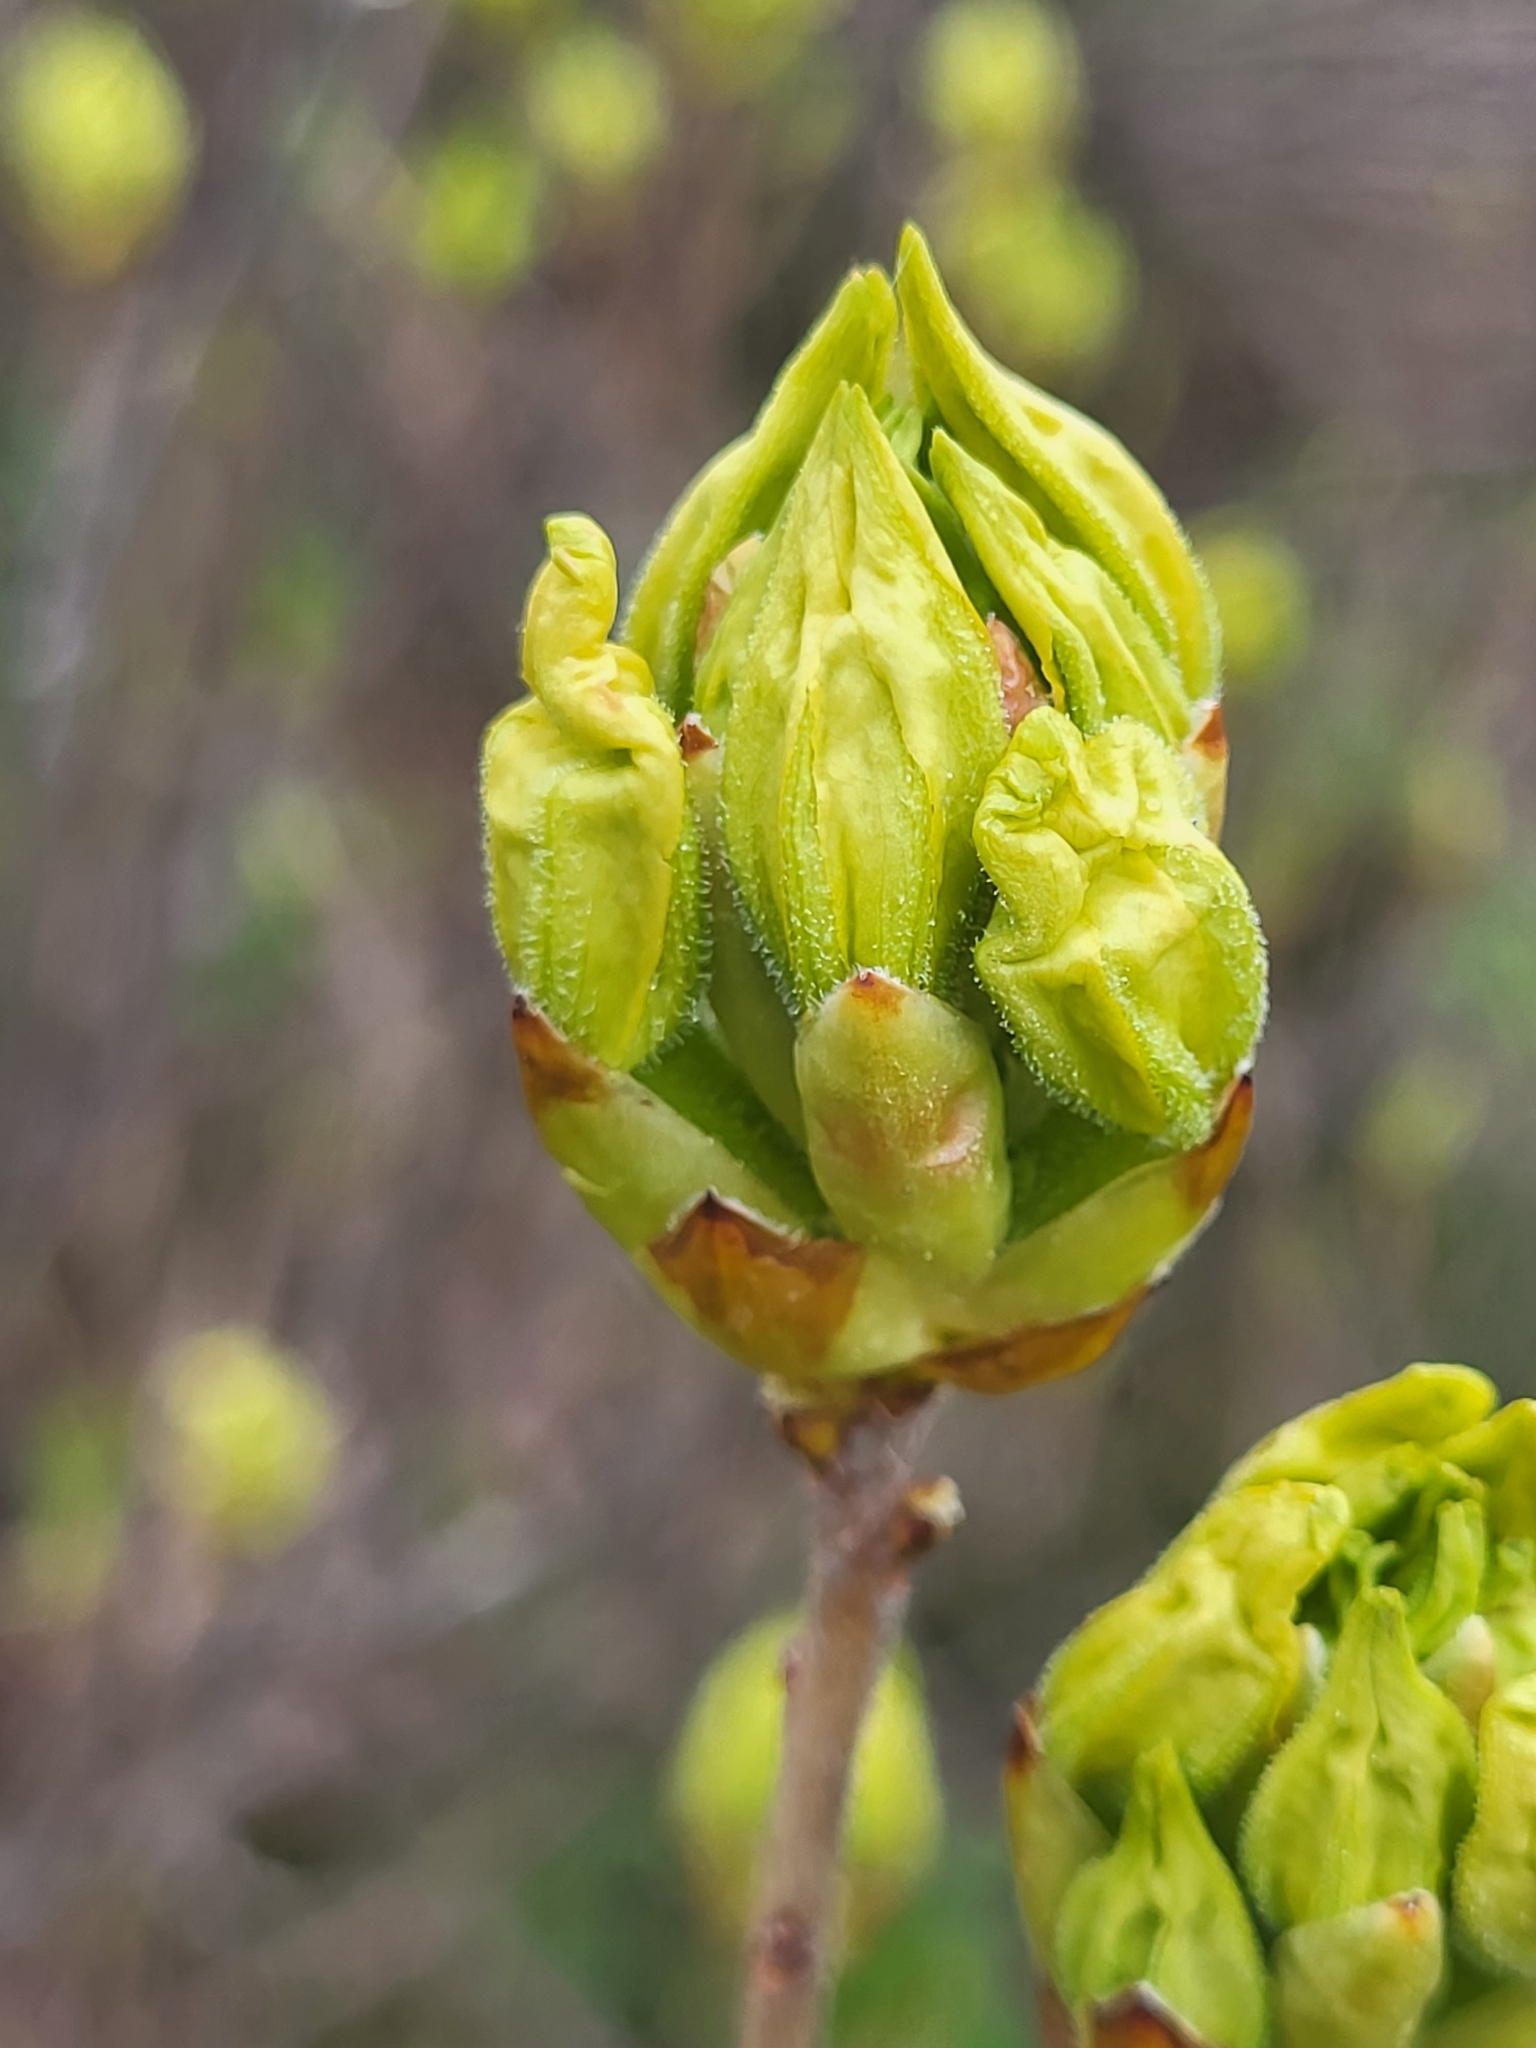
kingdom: Plantae
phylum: Tracheophyta
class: Magnoliopsida
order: Ericales
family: Ericaceae
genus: Rhododendron
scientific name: Rhododendron luteum
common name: Yellow azalea
